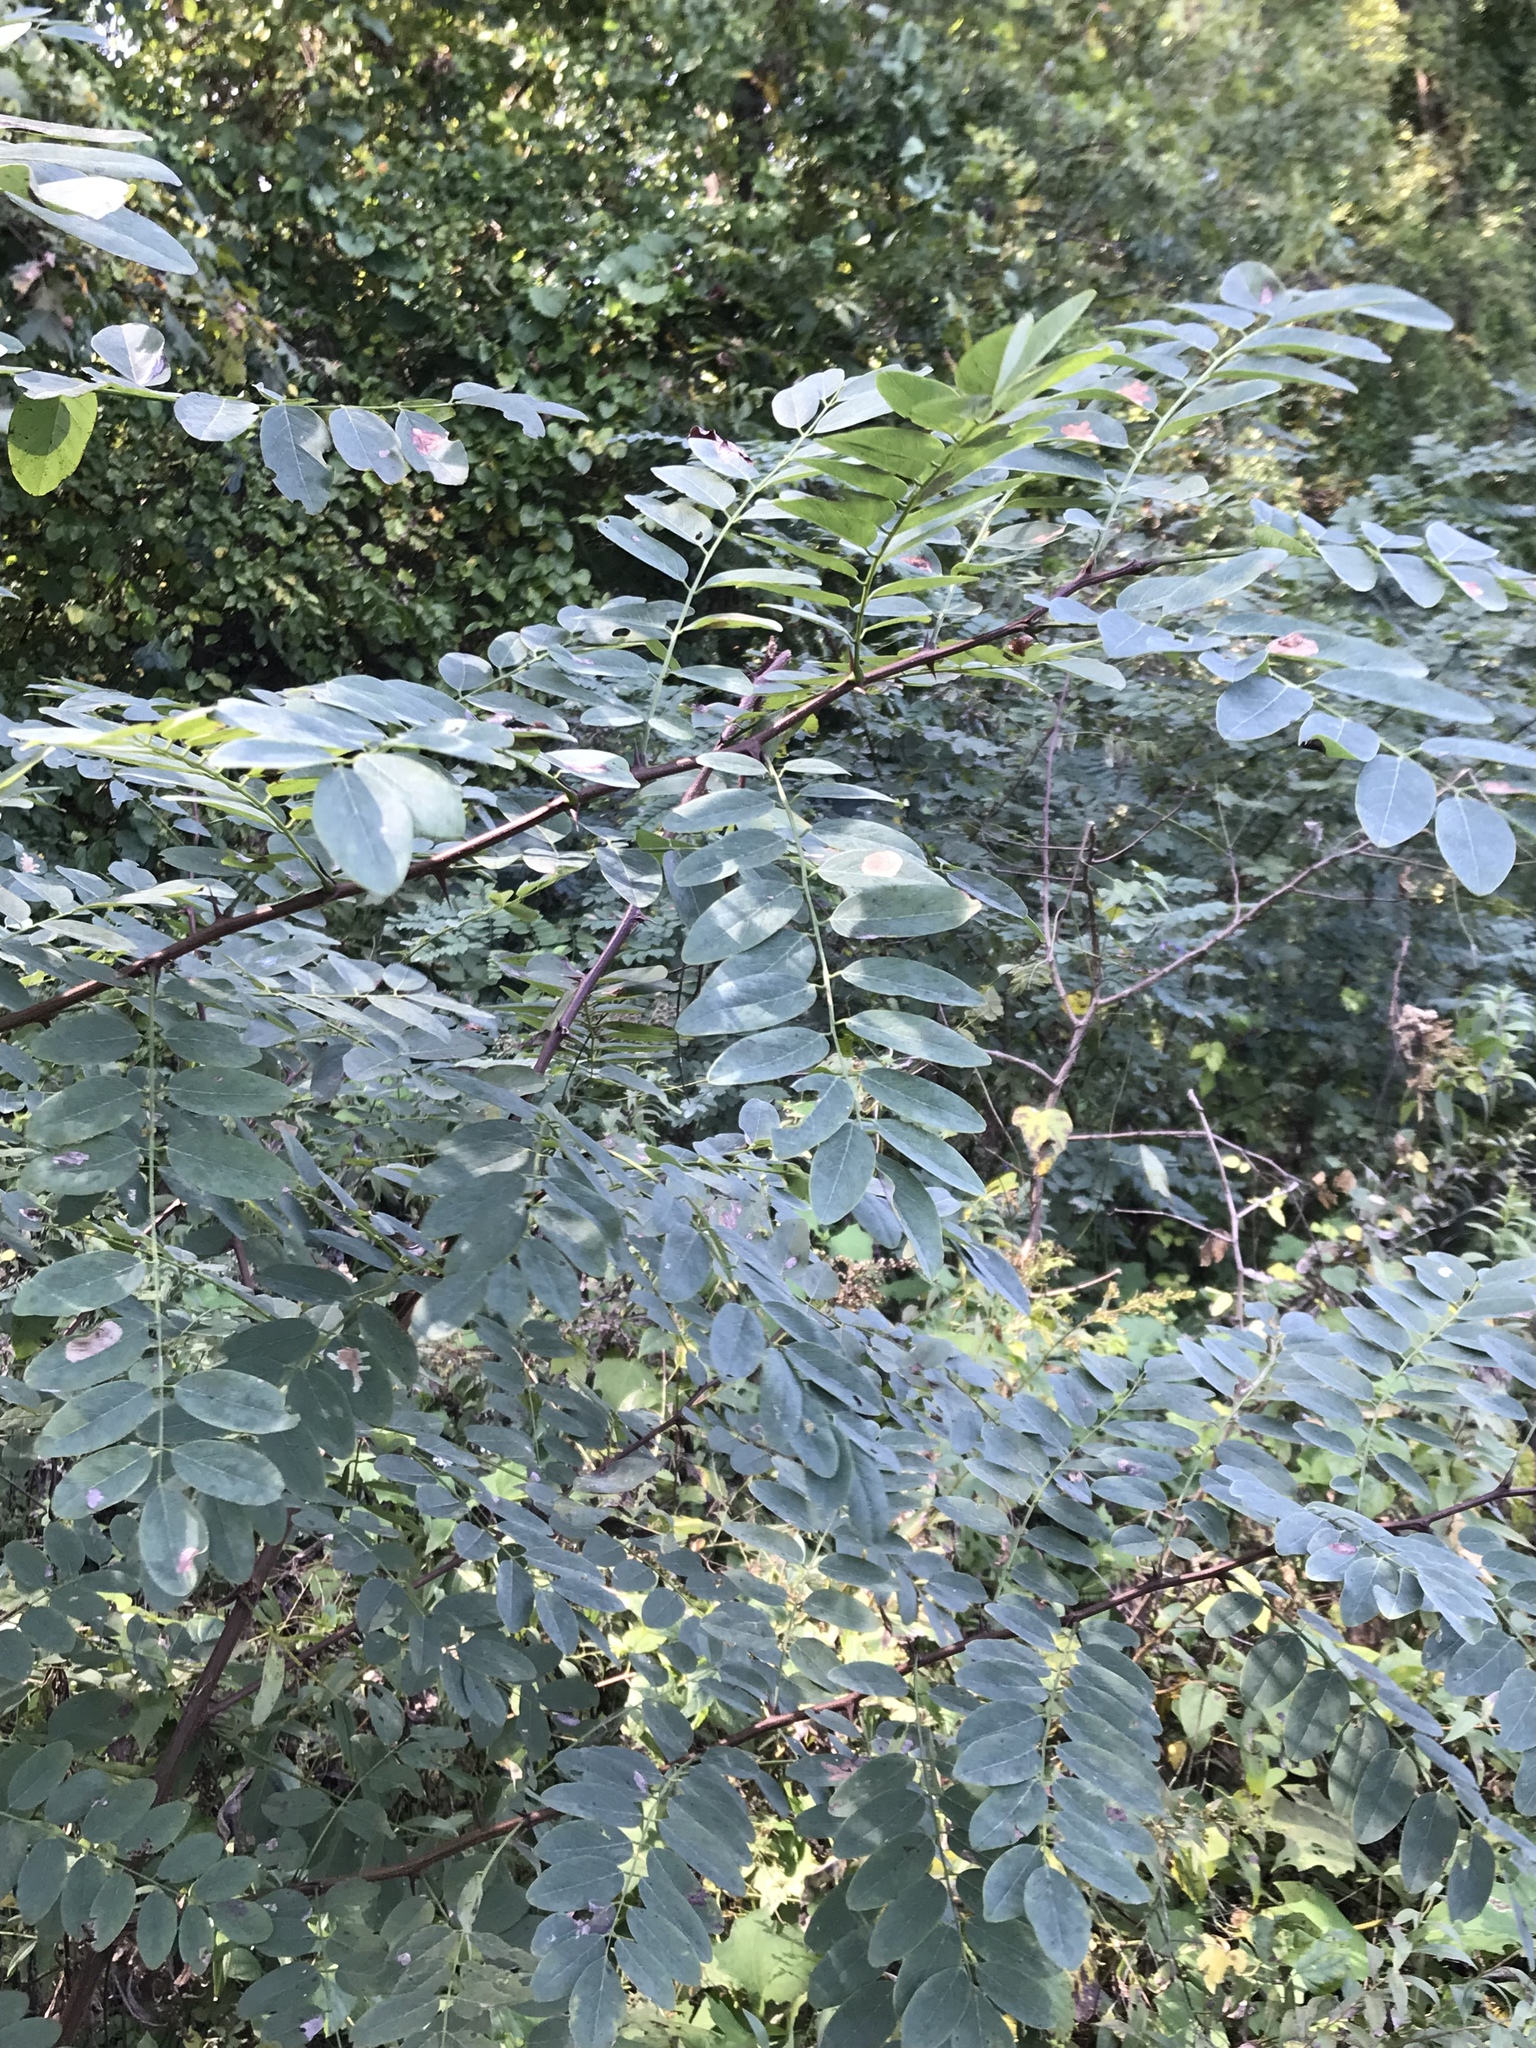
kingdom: Plantae
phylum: Tracheophyta
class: Magnoliopsida
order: Fabales
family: Fabaceae
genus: Robinia
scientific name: Robinia pseudoacacia
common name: Black locust
